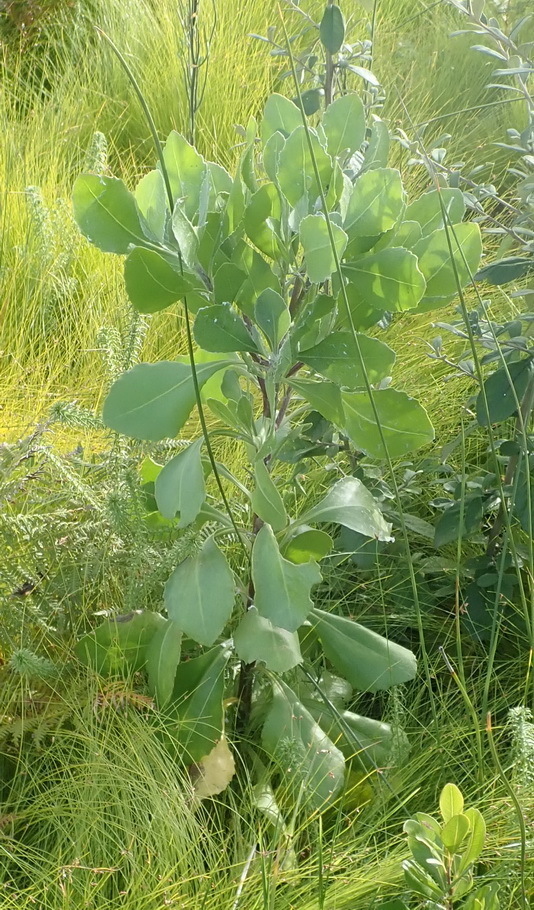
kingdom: Plantae
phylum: Tracheophyta
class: Magnoliopsida
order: Asterales
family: Asteraceae
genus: Osteospermum
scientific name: Osteospermum moniliferum
